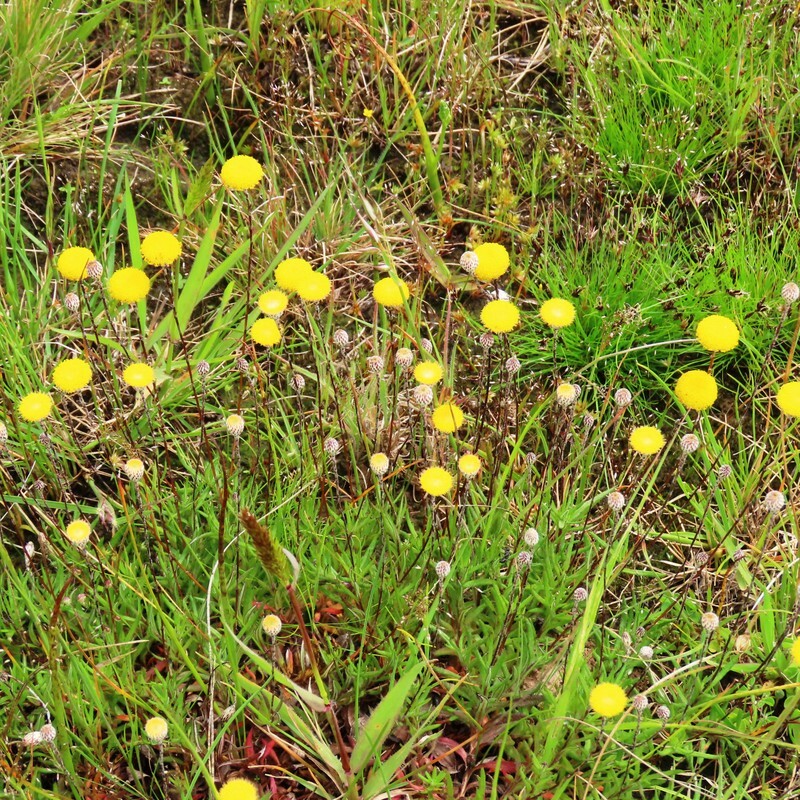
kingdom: Plantae
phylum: Tracheophyta
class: Magnoliopsida
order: Asterales
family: Asteraceae
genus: Leptorhynchos
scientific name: Leptorhynchos squamatus
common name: Scaly-buttons
